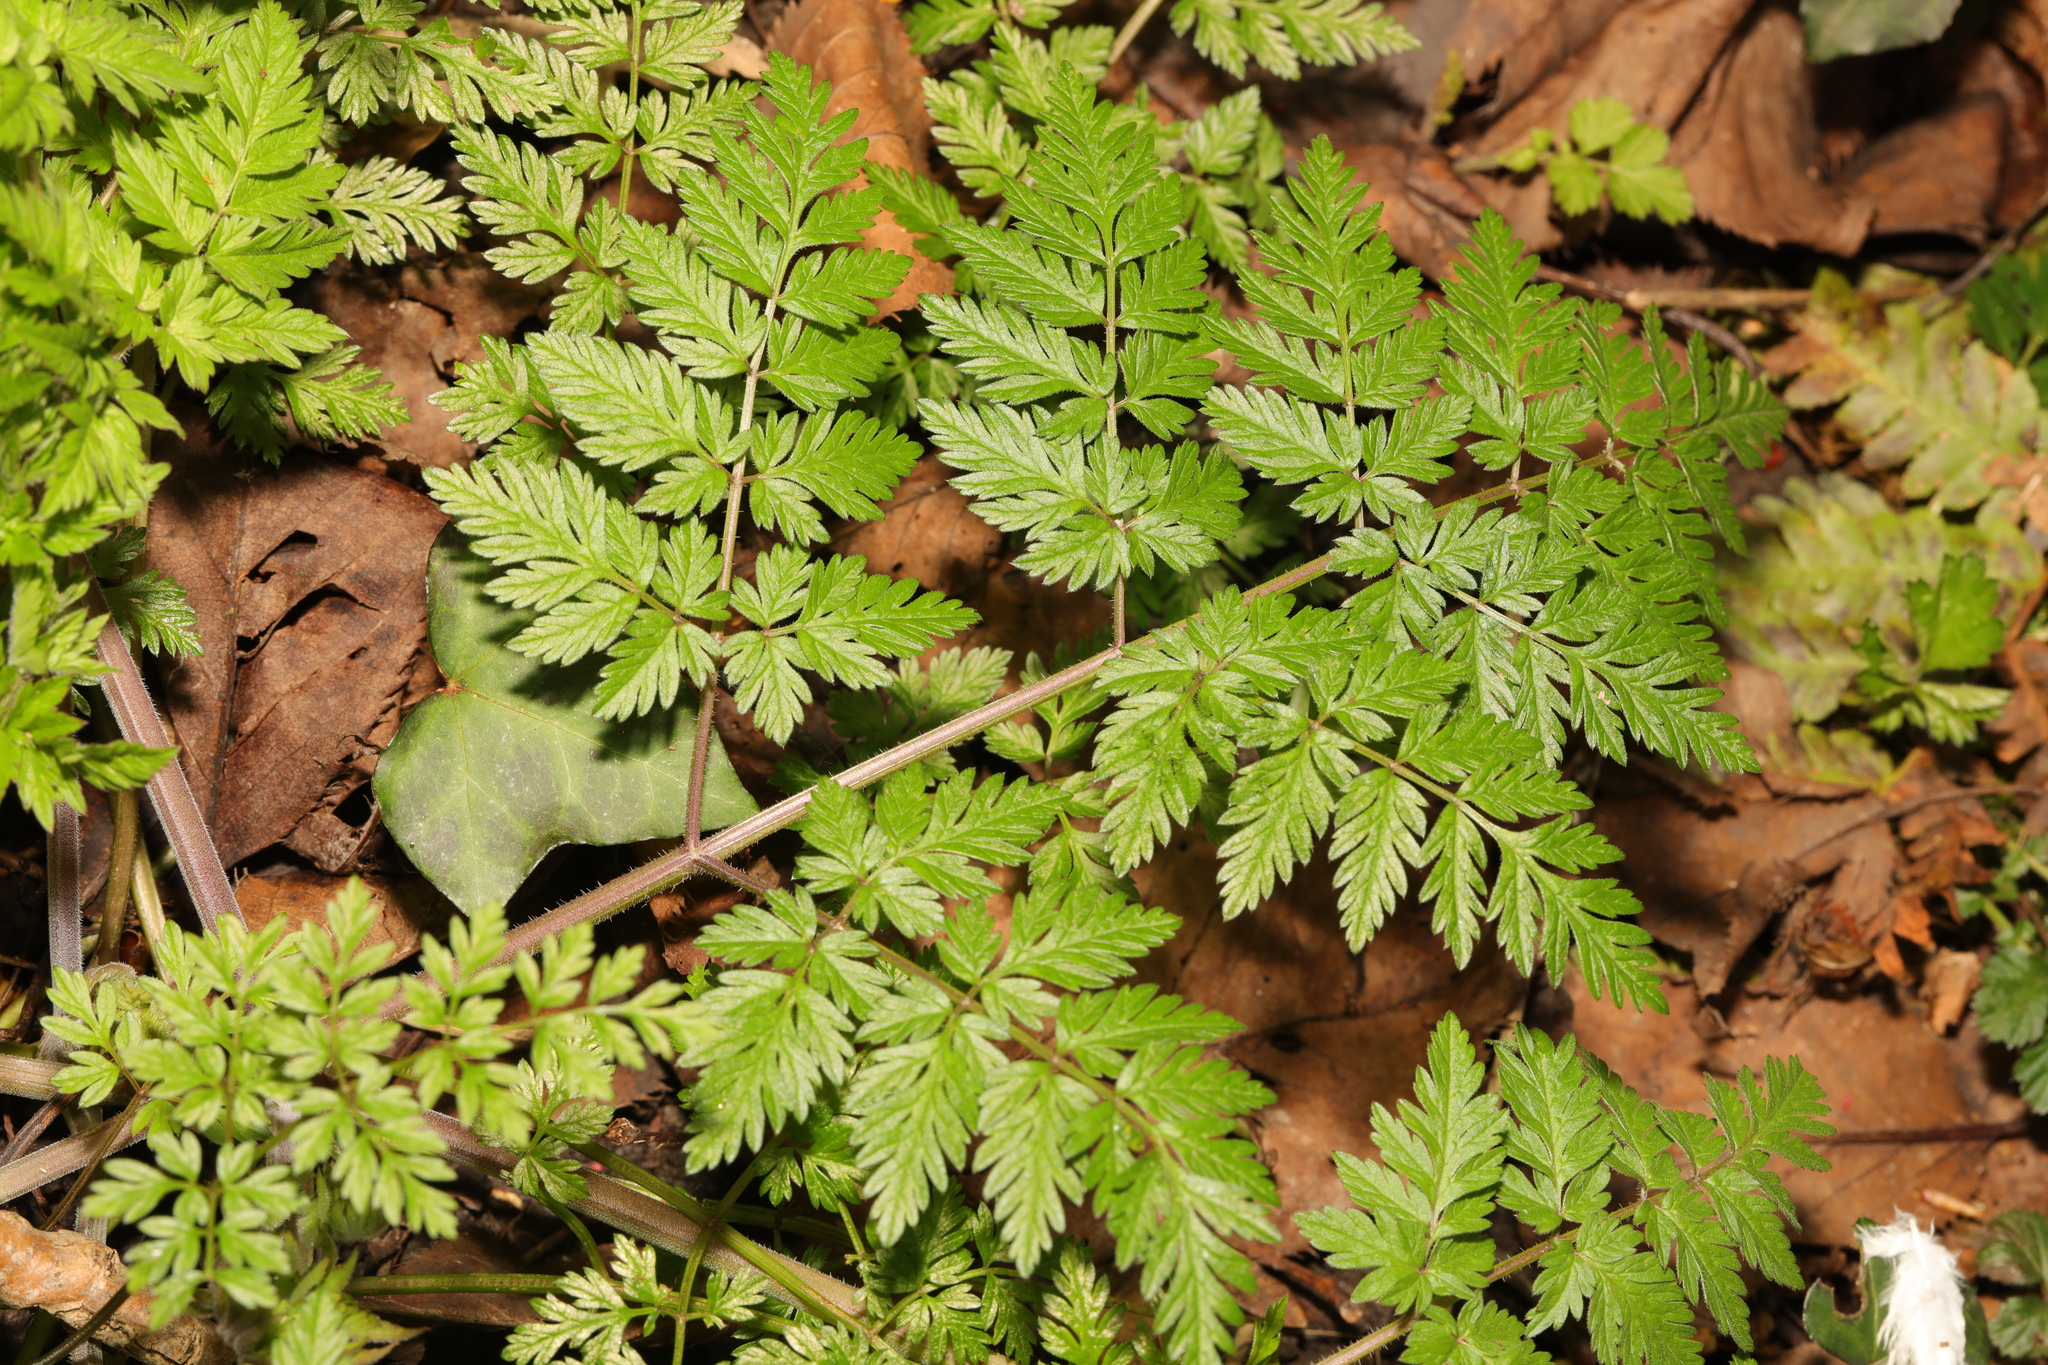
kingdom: Plantae
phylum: Tracheophyta
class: Magnoliopsida
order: Apiales
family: Apiaceae
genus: Anthriscus
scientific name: Anthriscus sylvestris
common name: Cow parsley
